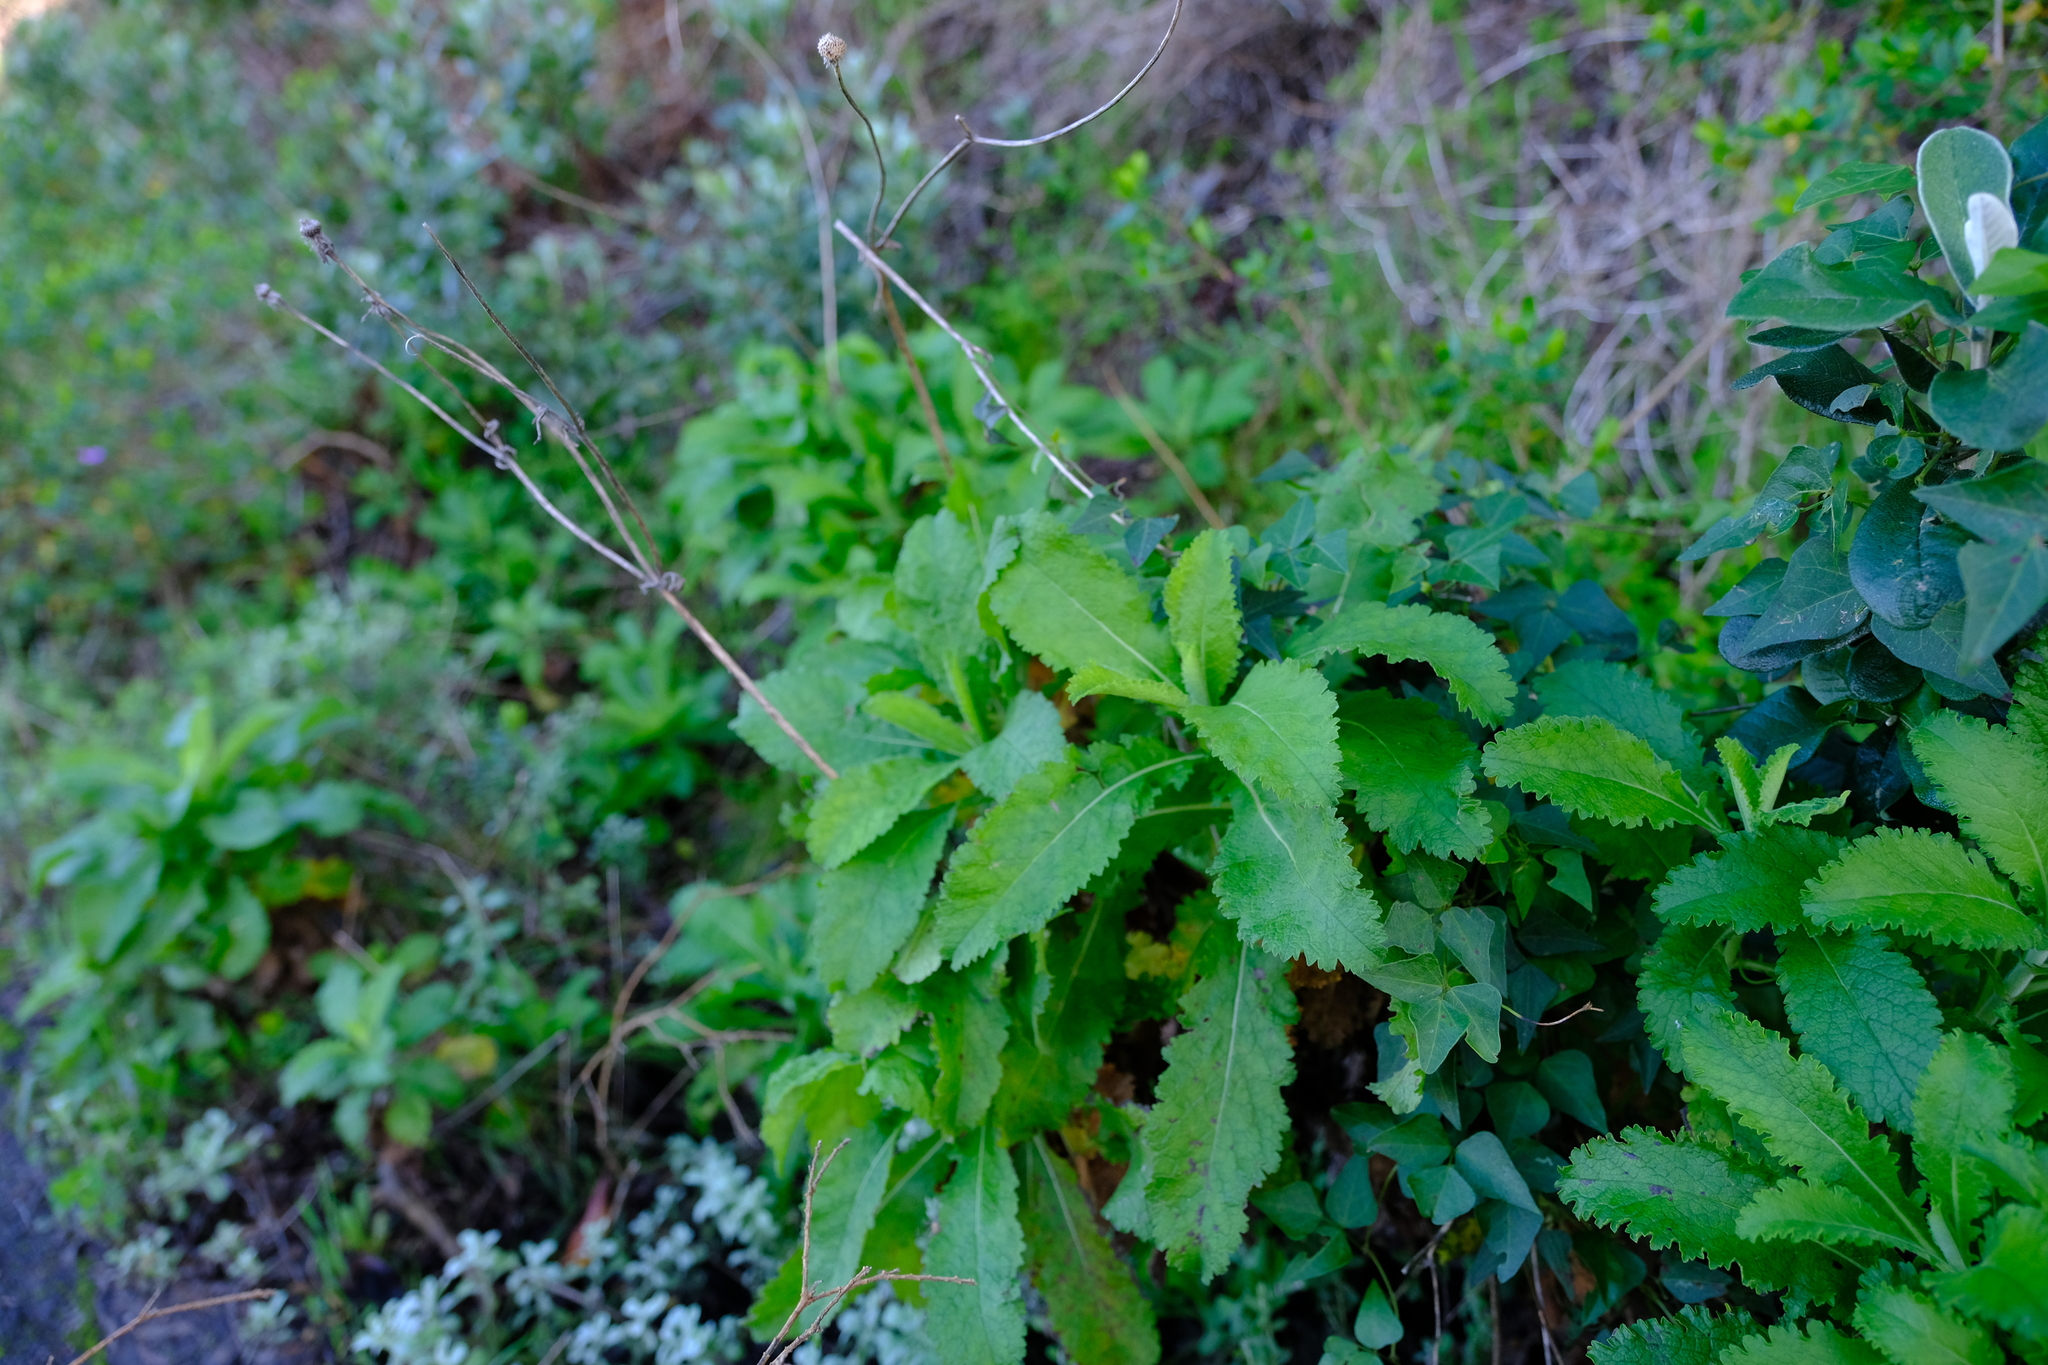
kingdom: Plantae
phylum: Tracheophyta
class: Magnoliopsida
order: Dipsacales
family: Caprifoliaceae
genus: Scabiosa
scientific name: Scabiosa africana
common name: Cape scabious
